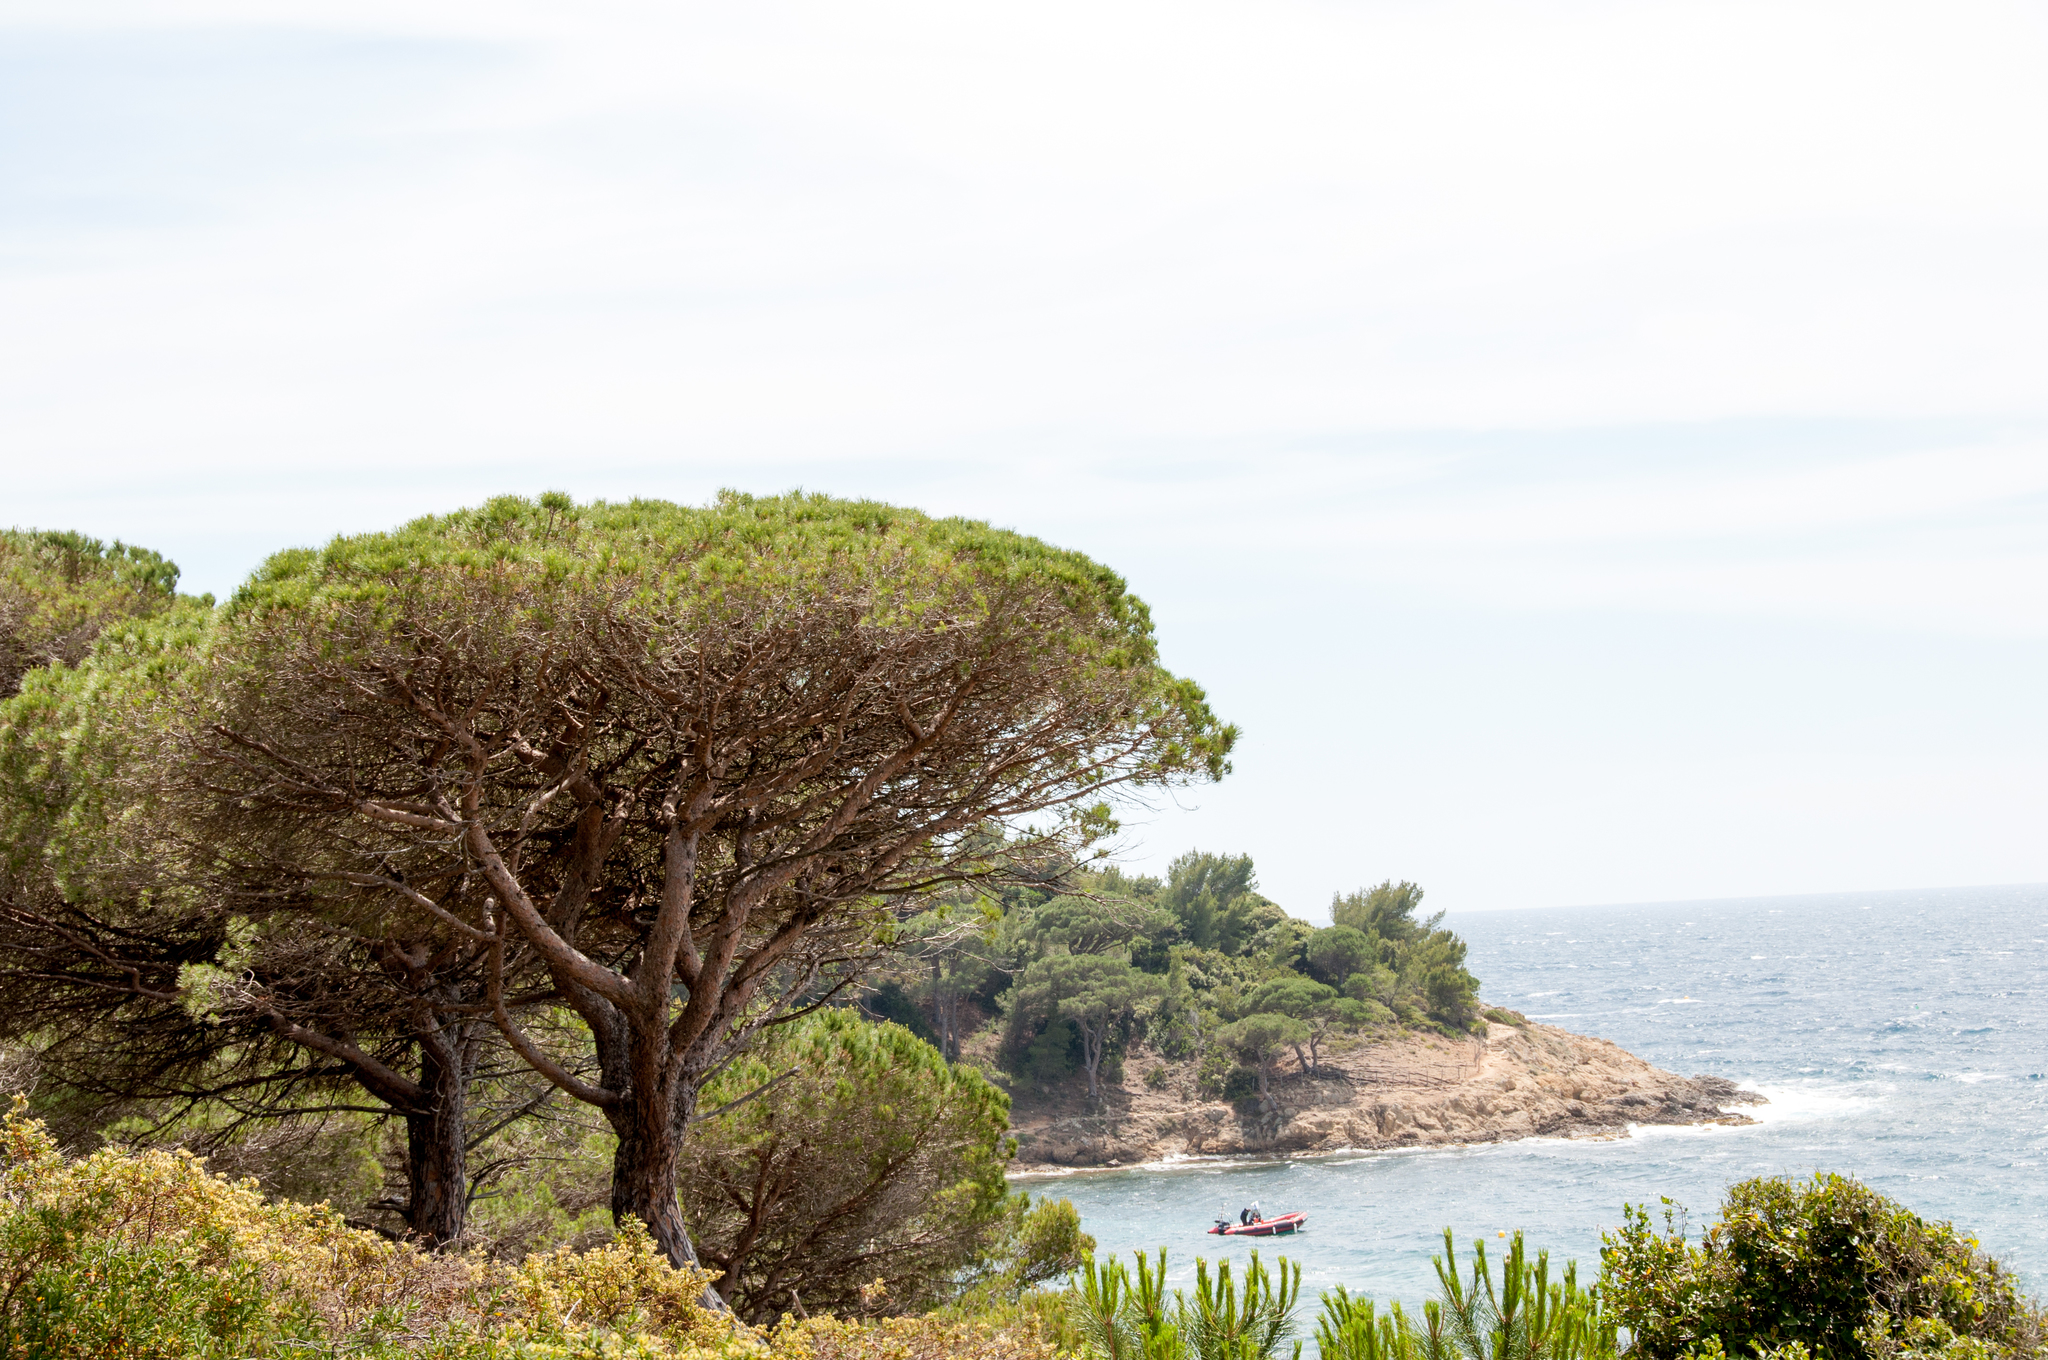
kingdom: Plantae
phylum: Tracheophyta
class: Pinopsida
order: Pinales
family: Pinaceae
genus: Pinus
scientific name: Pinus pinea
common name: Italian stone pine
